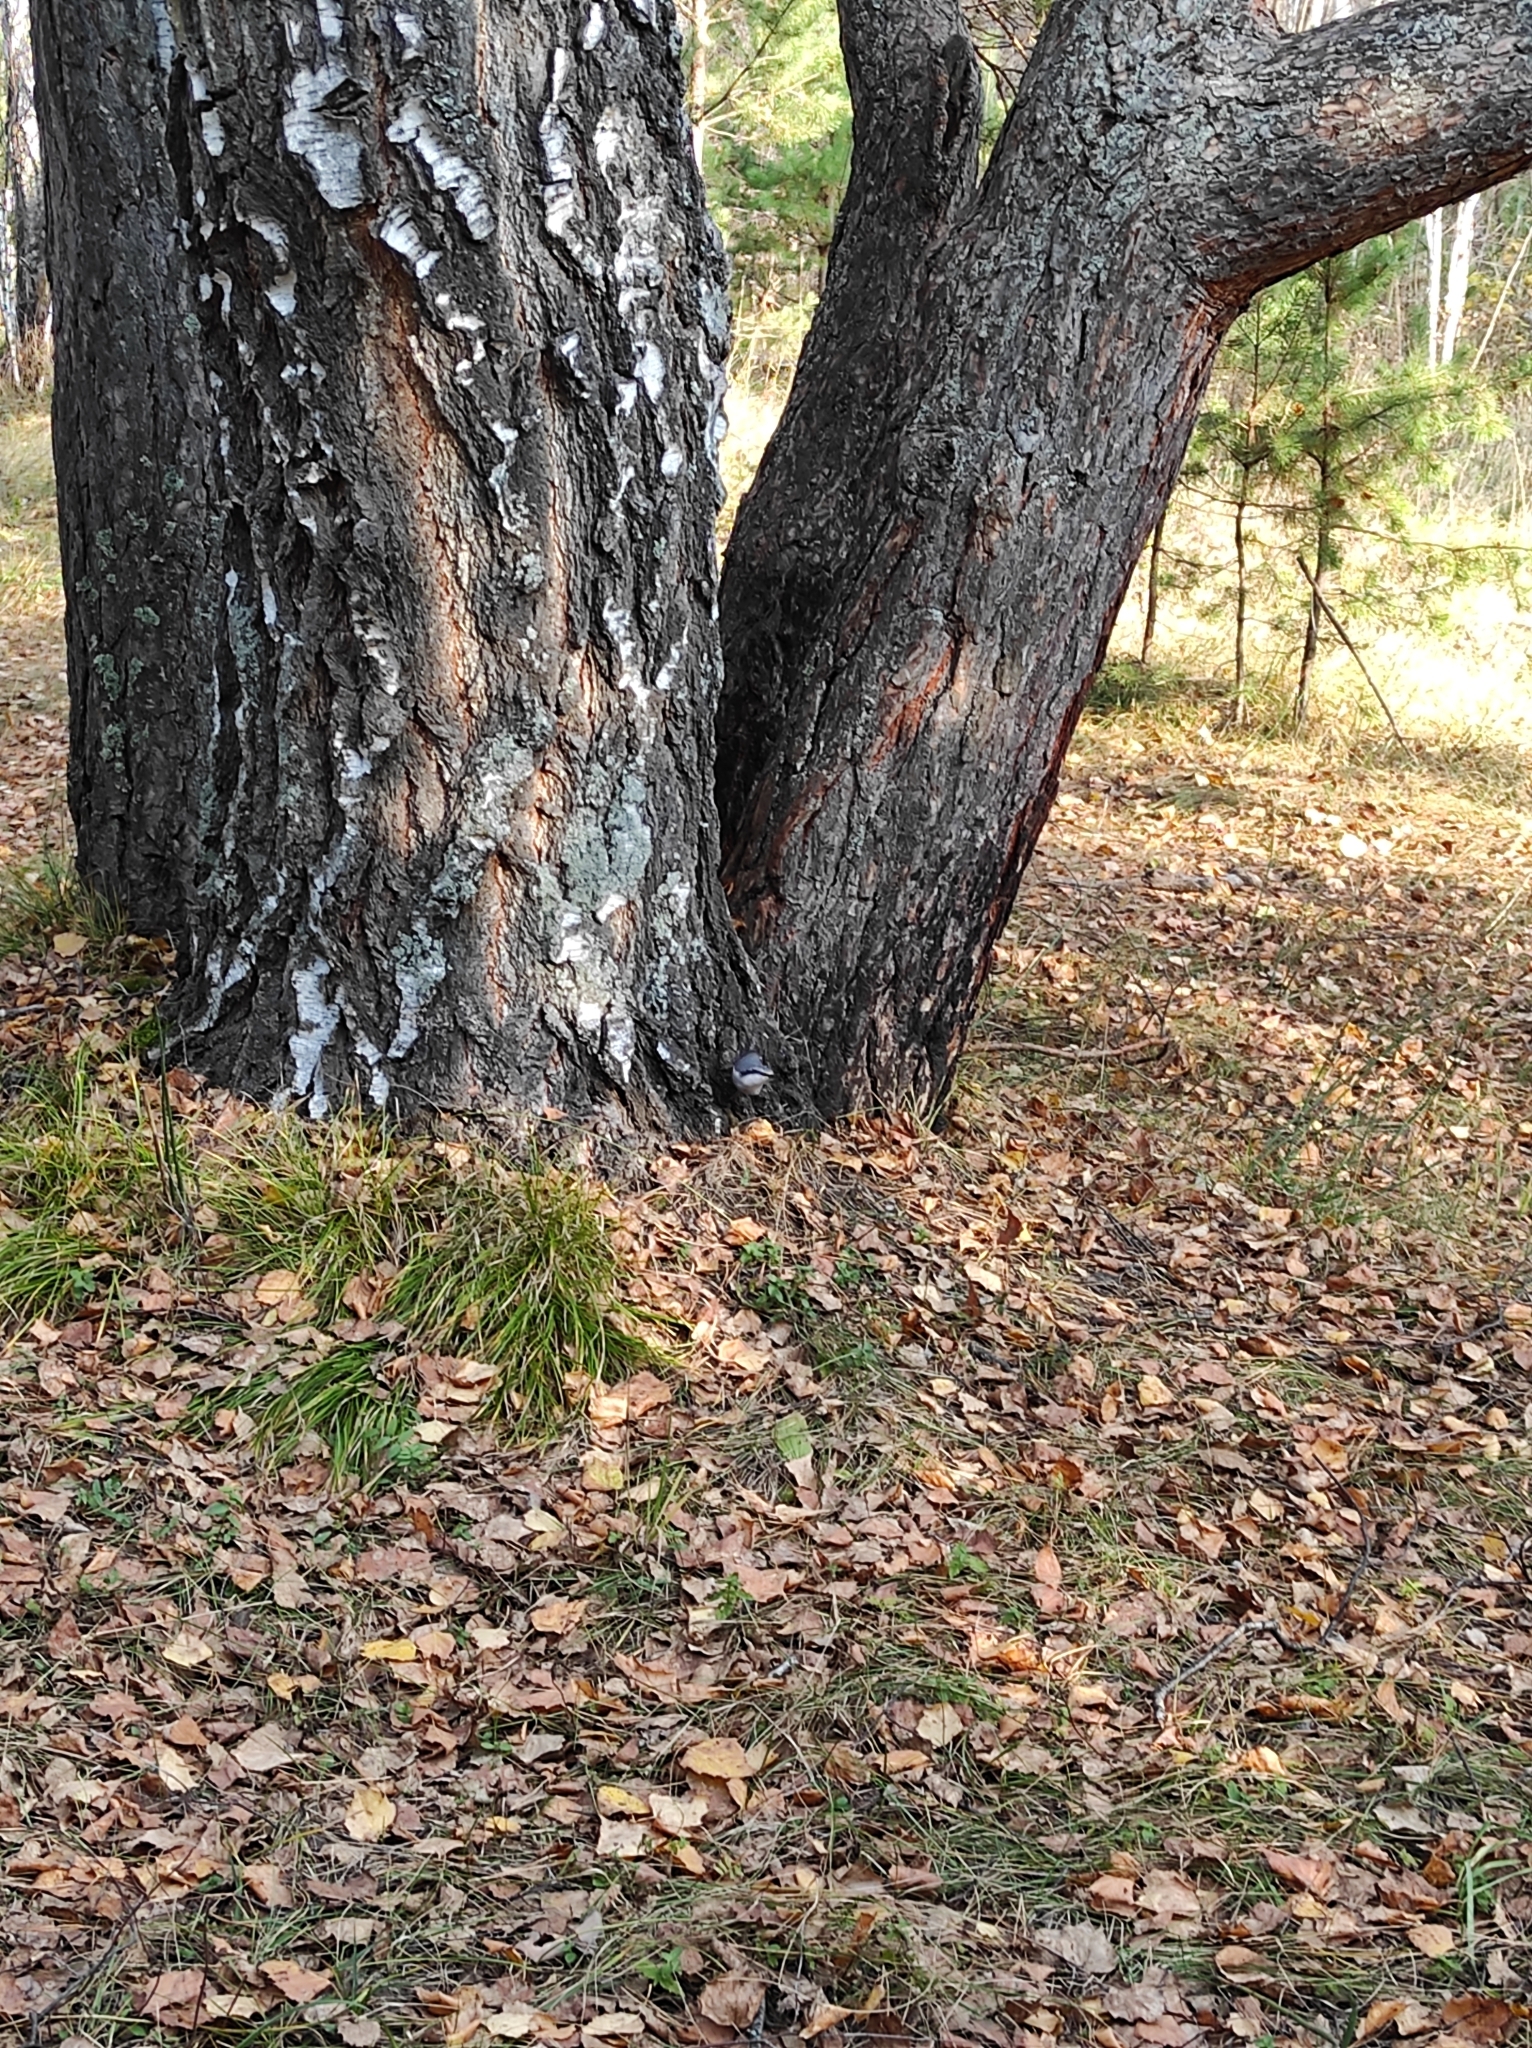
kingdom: Animalia
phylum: Chordata
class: Aves
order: Passeriformes
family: Sittidae
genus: Sitta
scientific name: Sitta europaea
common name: Eurasian nuthatch
